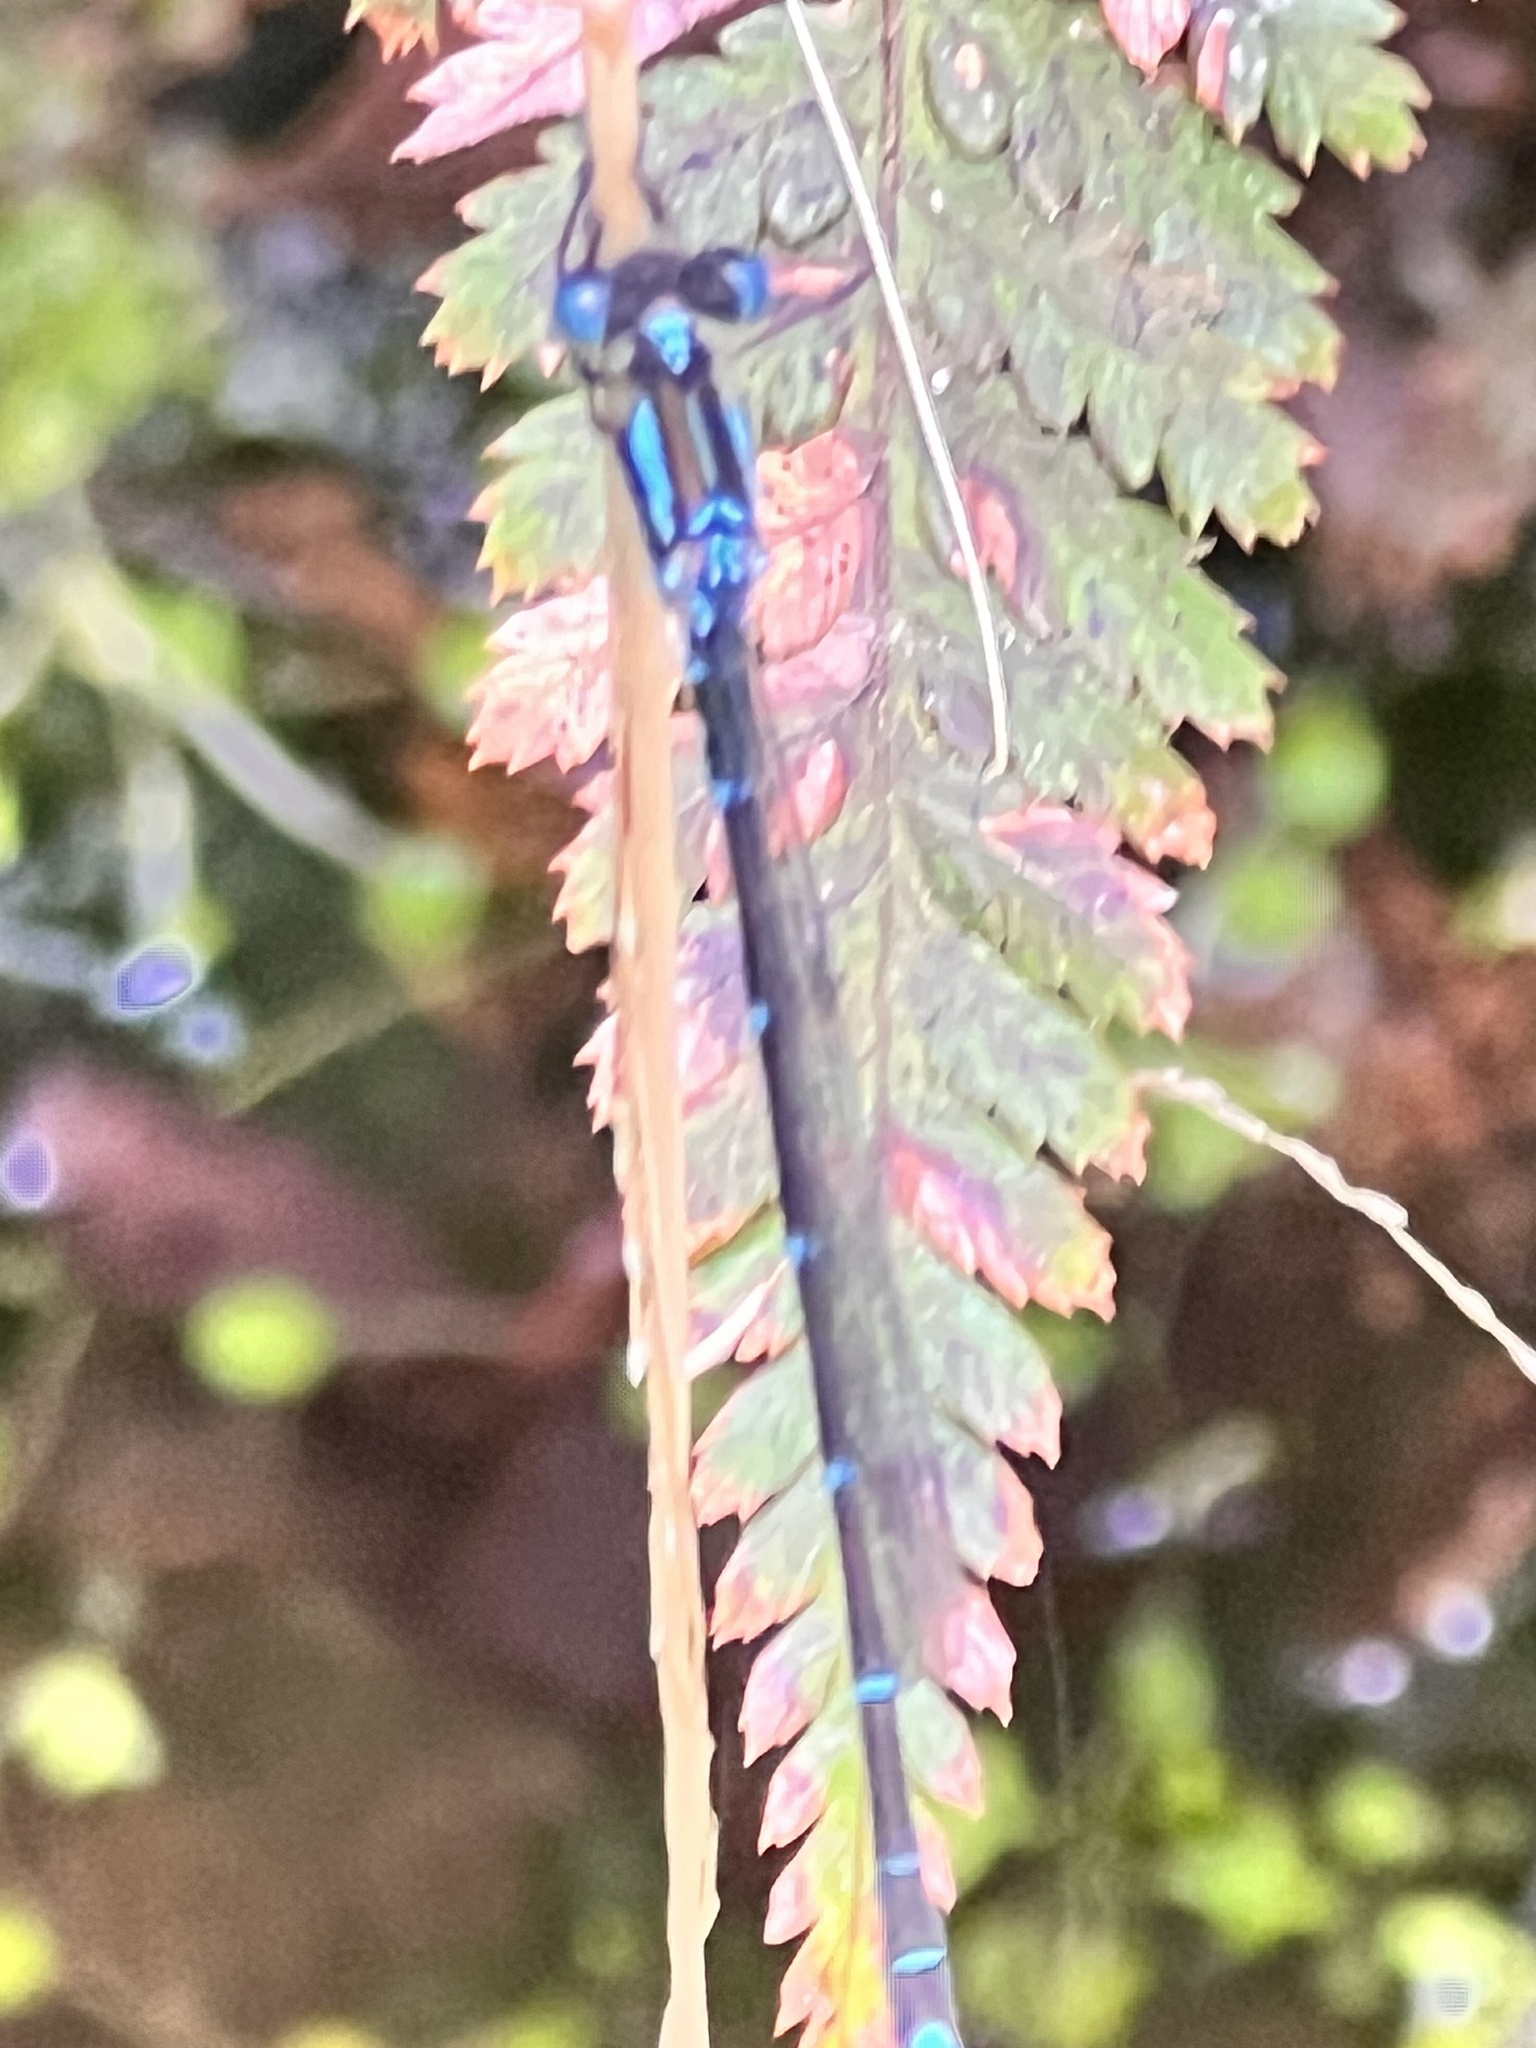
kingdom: Animalia
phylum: Arthropoda
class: Insecta
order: Odonata
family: Lestidae
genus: Austrolestes
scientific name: Austrolestes colensonis
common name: Blue damselfly
